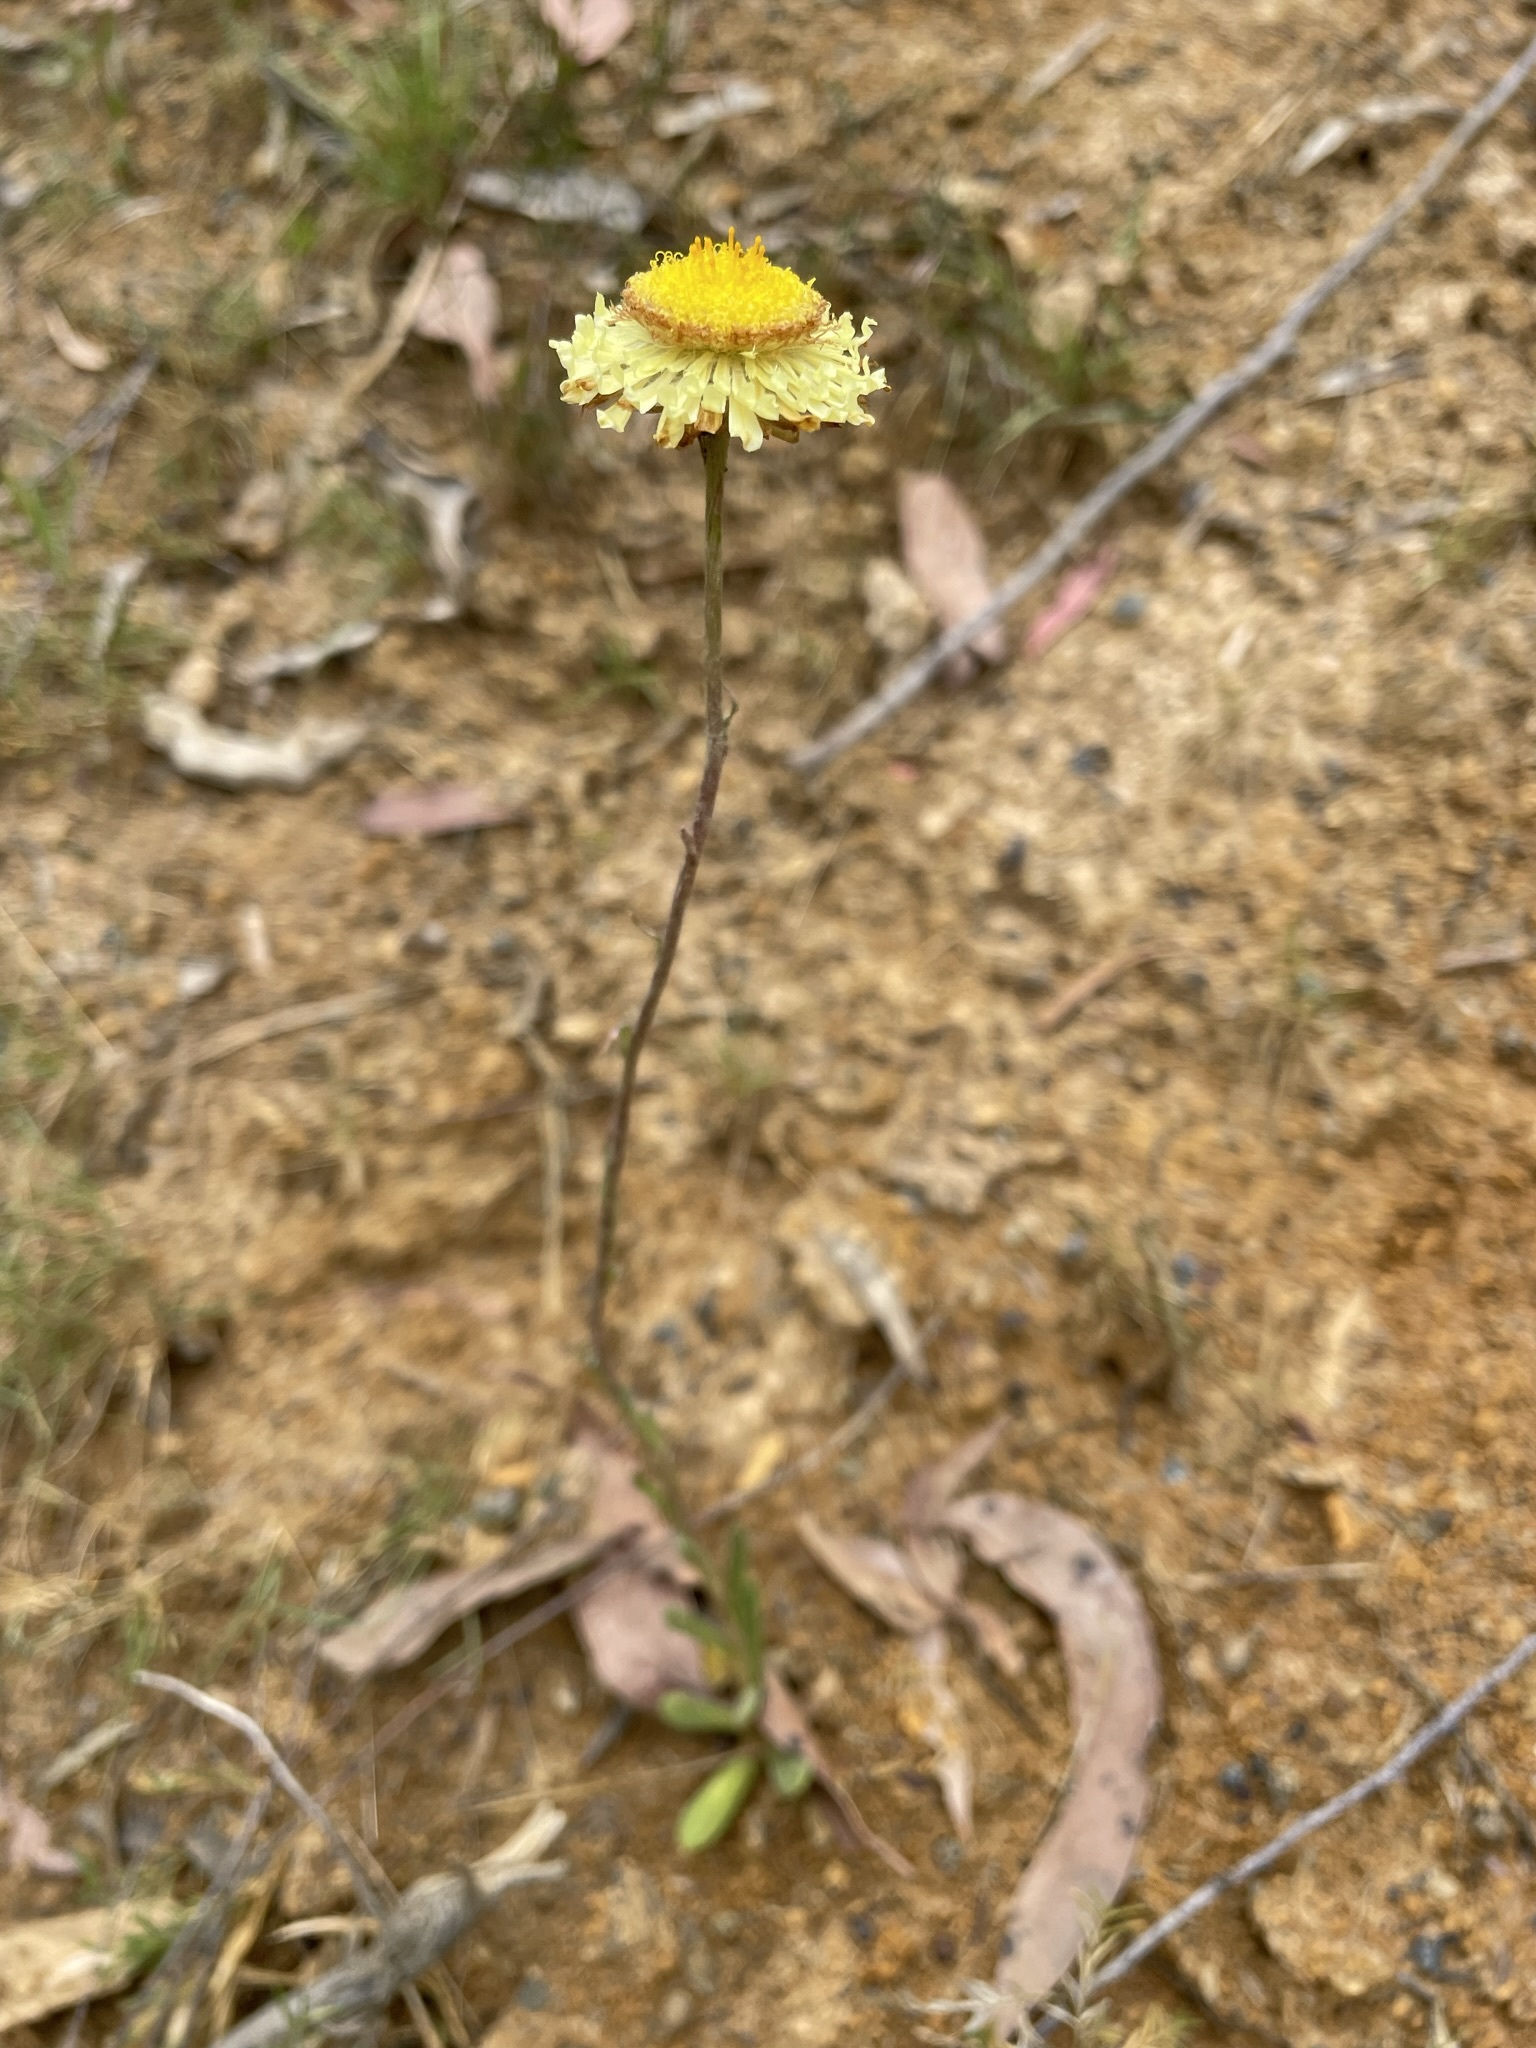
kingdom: Plantae
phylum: Tracheophyta
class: Magnoliopsida
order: Asterales
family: Asteraceae
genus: Coronidium
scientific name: Coronidium scorpioides
